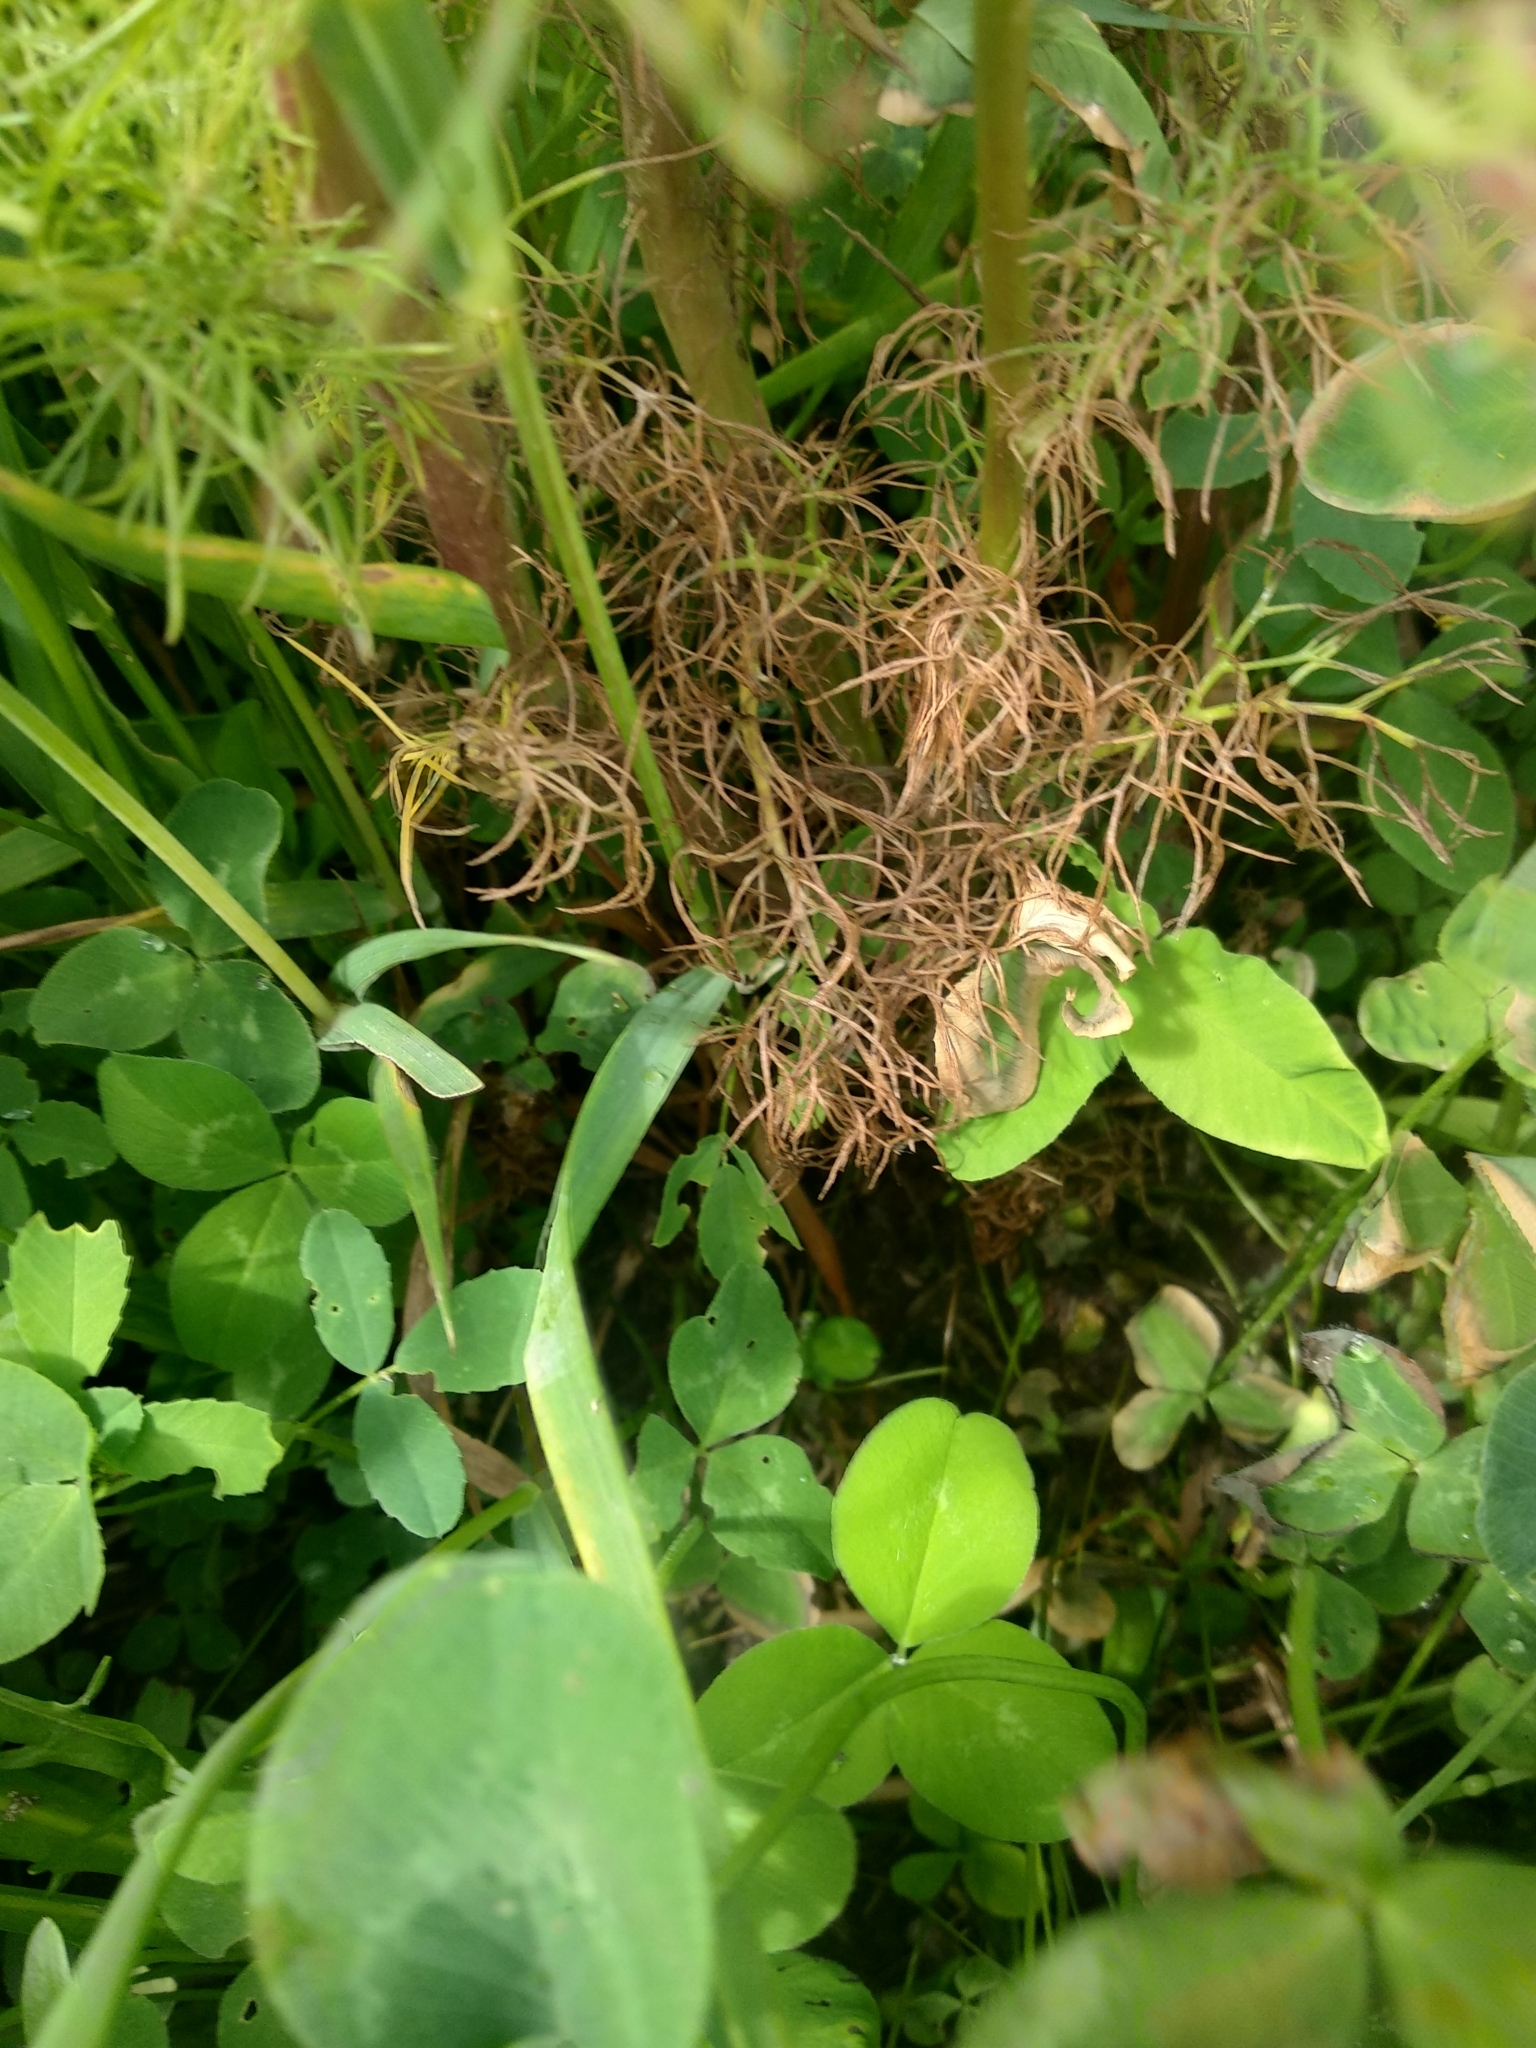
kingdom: Plantae
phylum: Tracheophyta
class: Magnoliopsida
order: Asterales
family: Asteraceae
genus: Tripleurospermum
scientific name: Tripleurospermum inodorum
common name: Scentless mayweed
